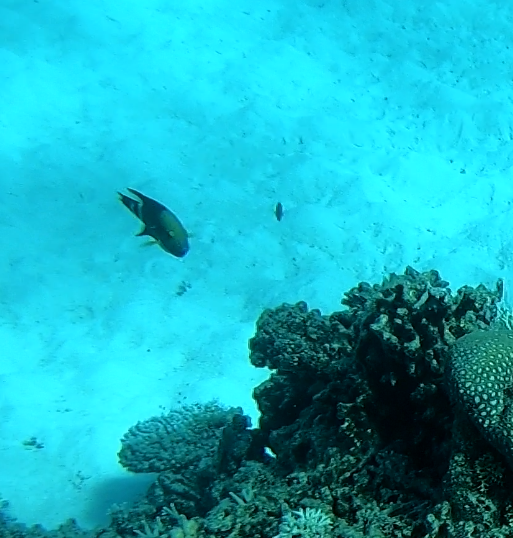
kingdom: Animalia
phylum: Chordata
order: Perciformes
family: Labridae
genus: Cheilinus
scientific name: Cheilinus trilobatus
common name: Tripletail maori wrasse
